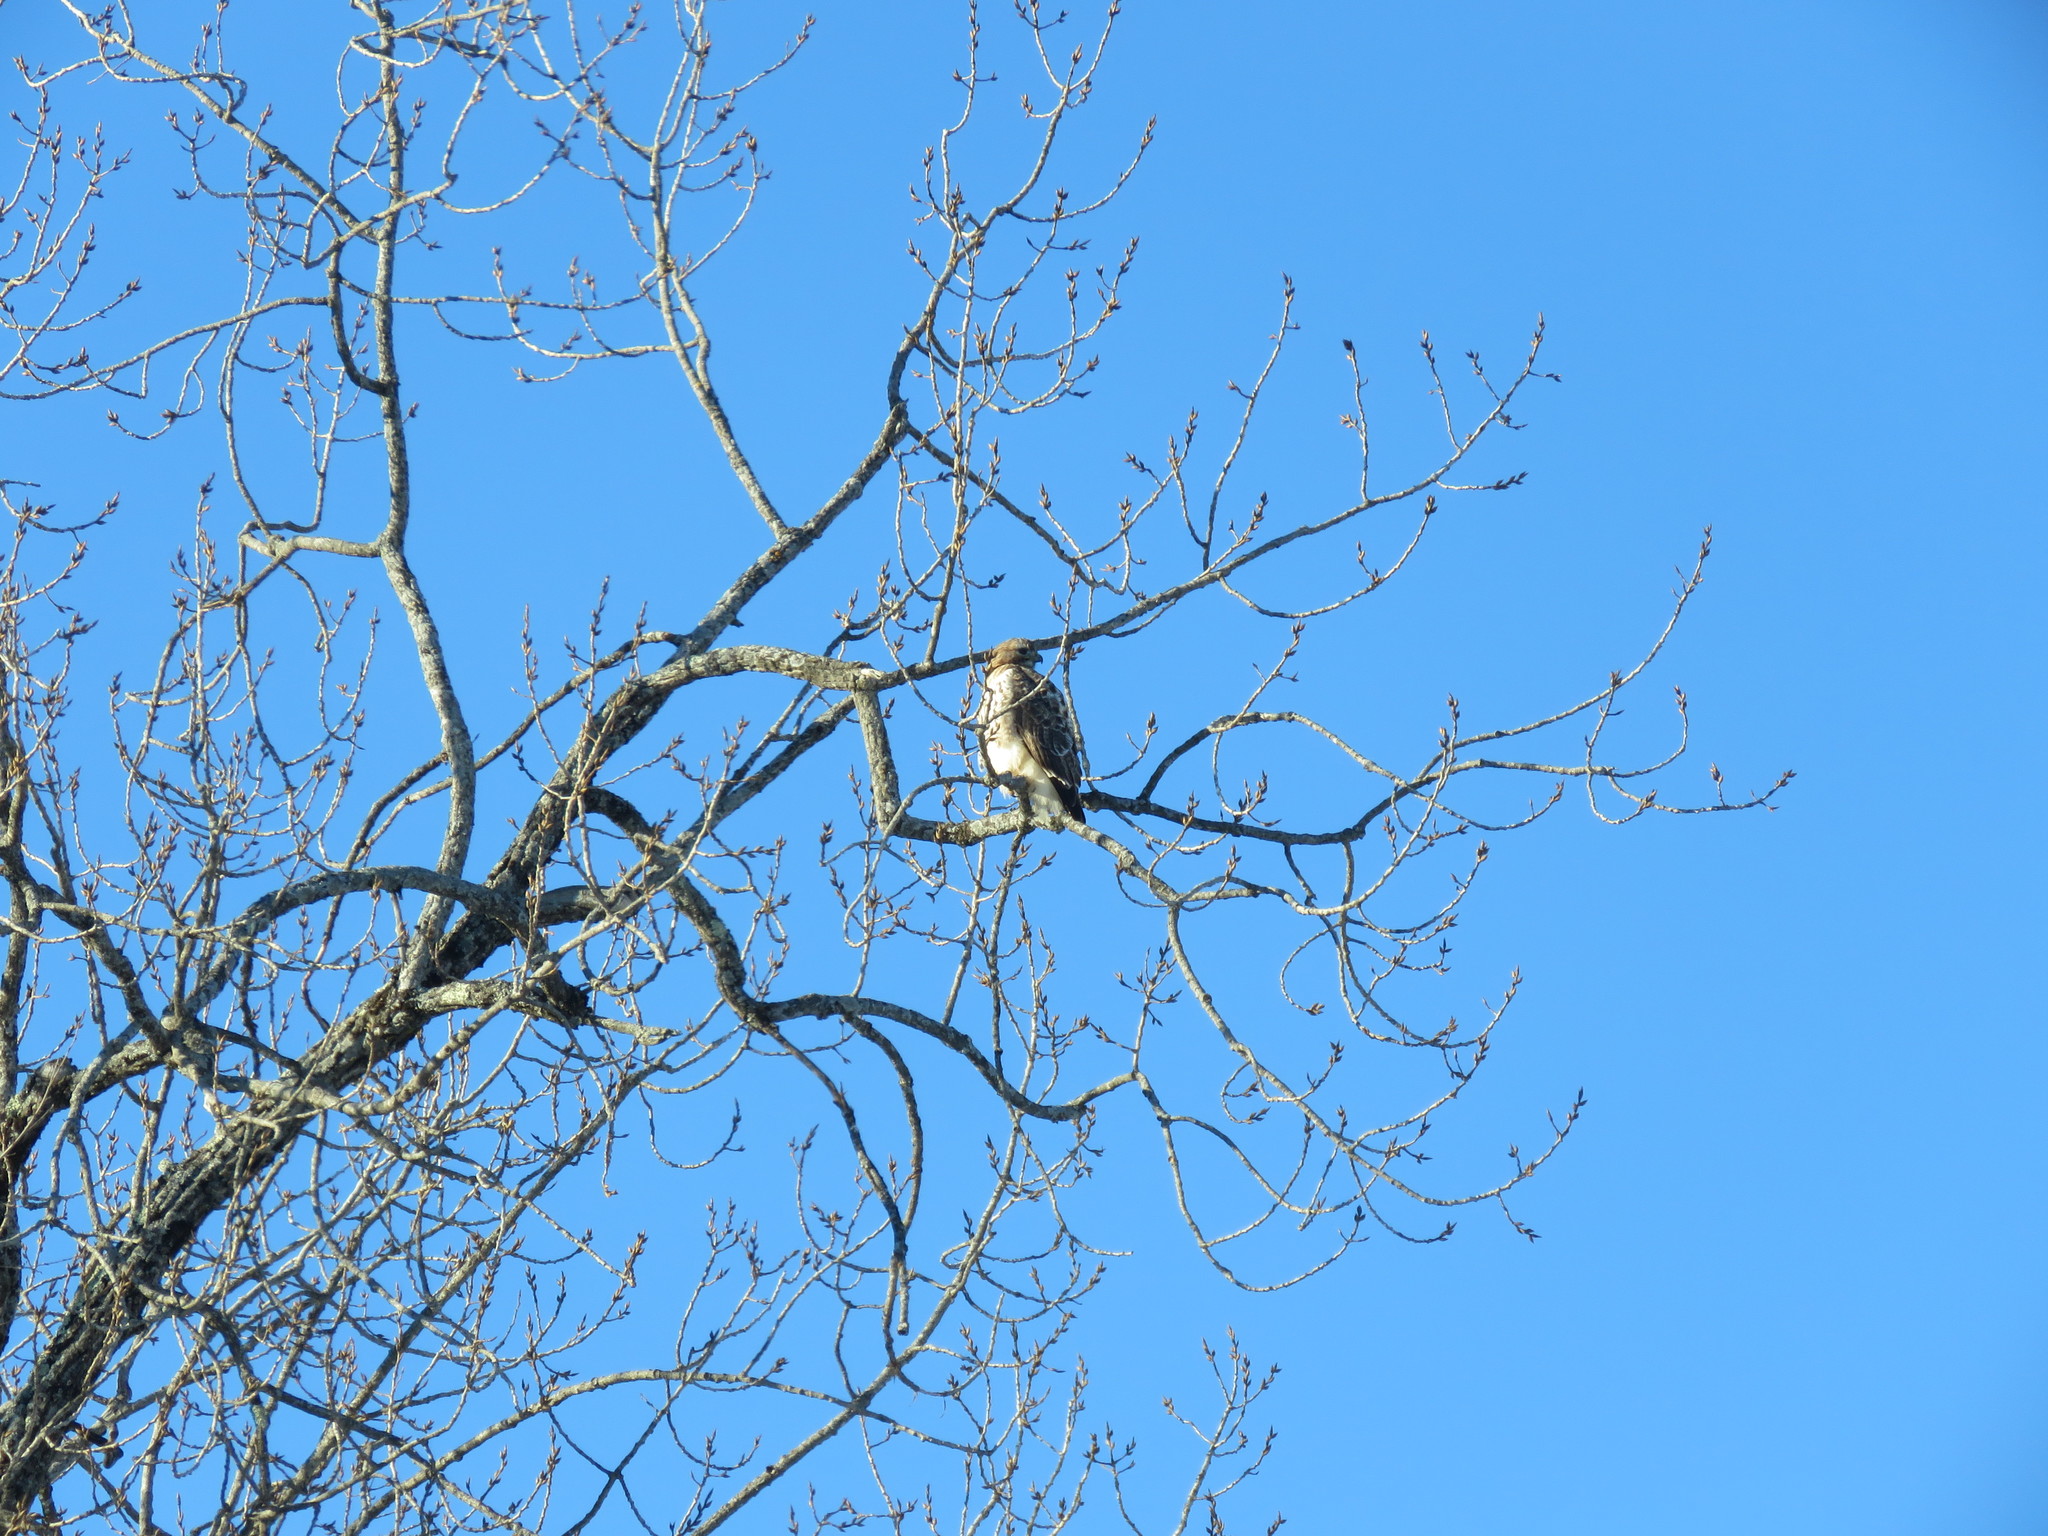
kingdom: Animalia
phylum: Chordata
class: Aves
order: Accipitriformes
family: Accipitridae
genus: Buteo
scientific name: Buteo jamaicensis
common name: Red-tailed hawk
